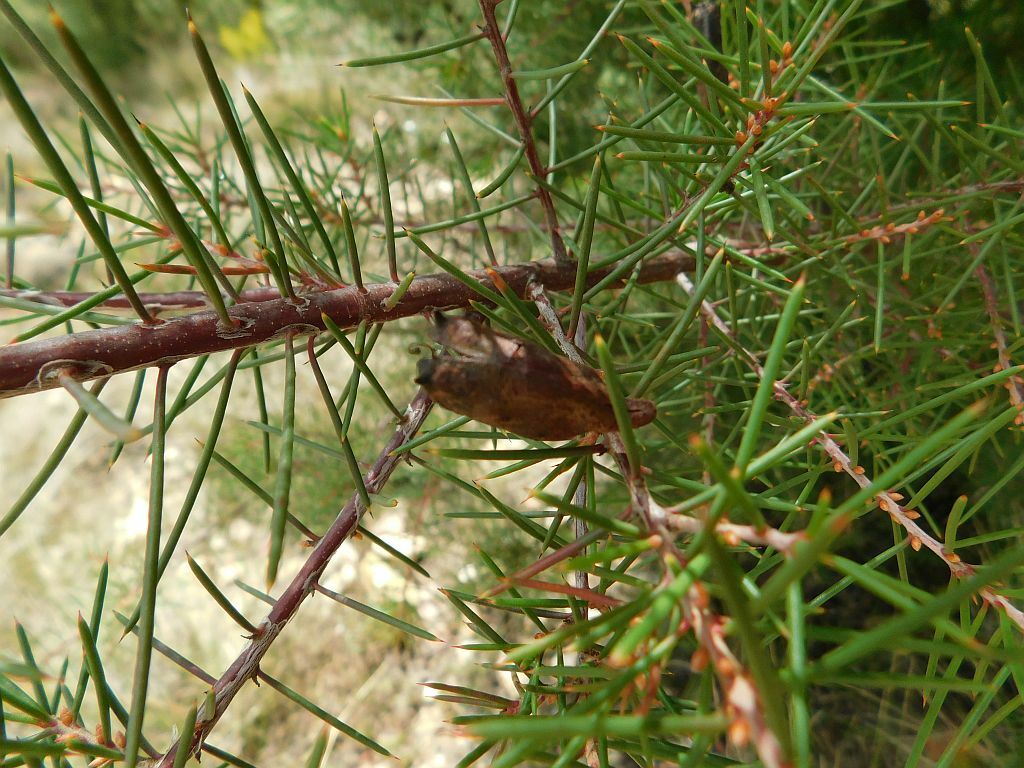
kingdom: Plantae
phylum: Tracheophyta
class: Magnoliopsida
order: Proteales
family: Proteaceae
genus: Hakea
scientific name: Hakea sericea
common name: Needle bush
